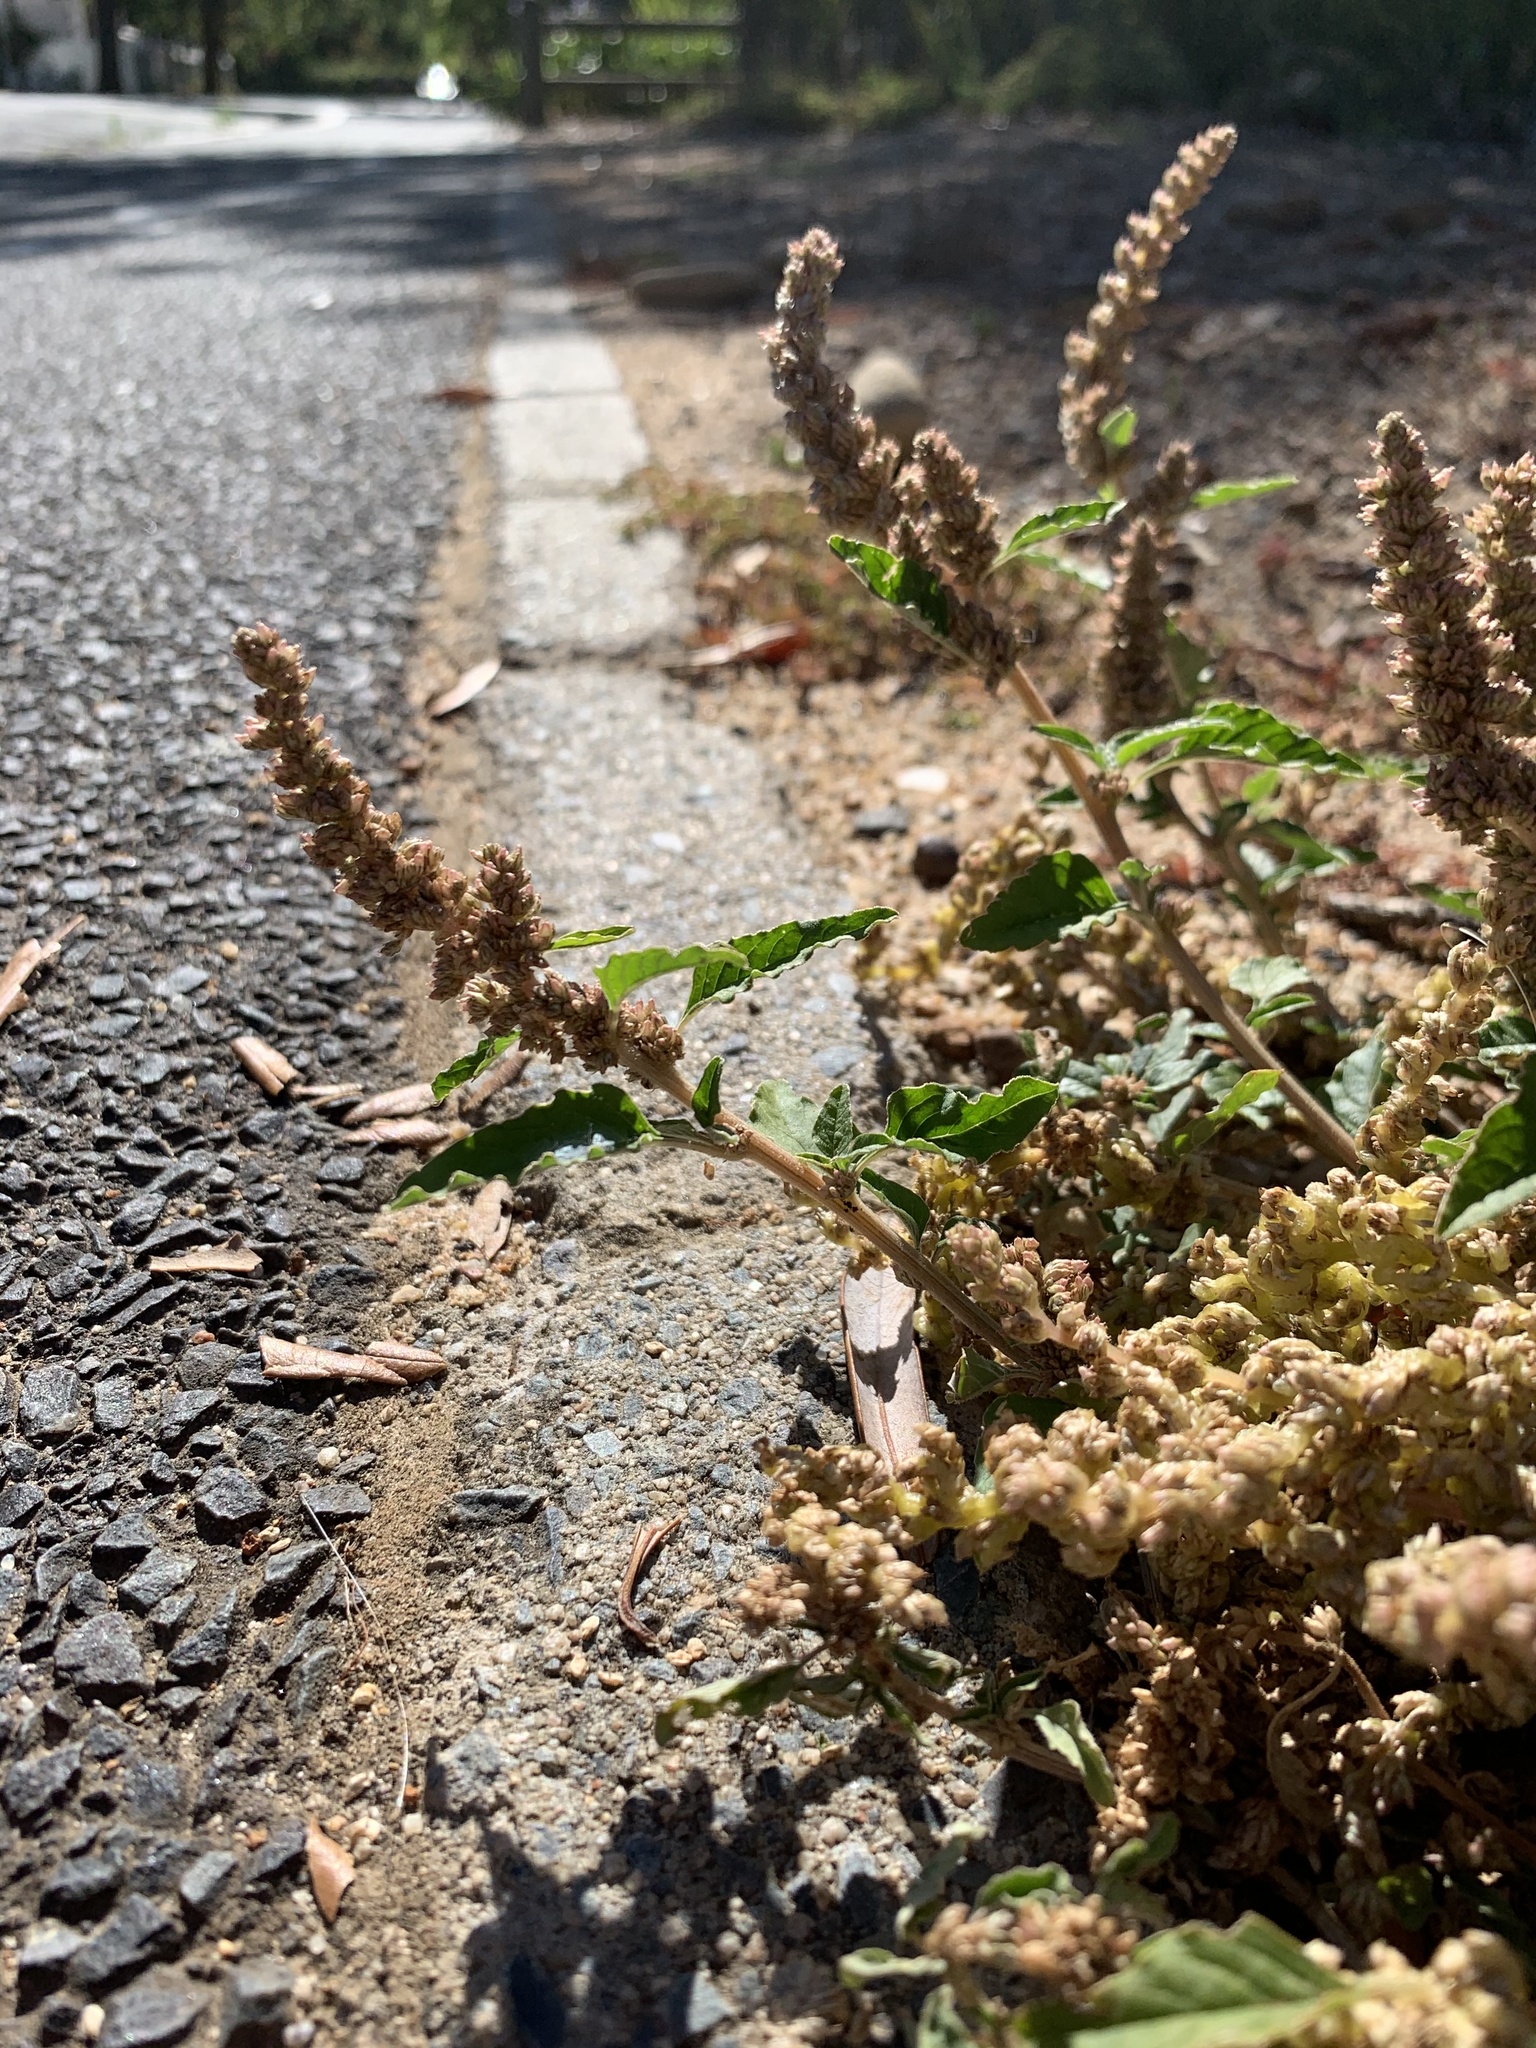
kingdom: Plantae
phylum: Tracheophyta
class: Magnoliopsida
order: Caryophyllales
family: Amaranthaceae
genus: Amaranthus
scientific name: Amaranthus deflexus
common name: Perennial pigweed
